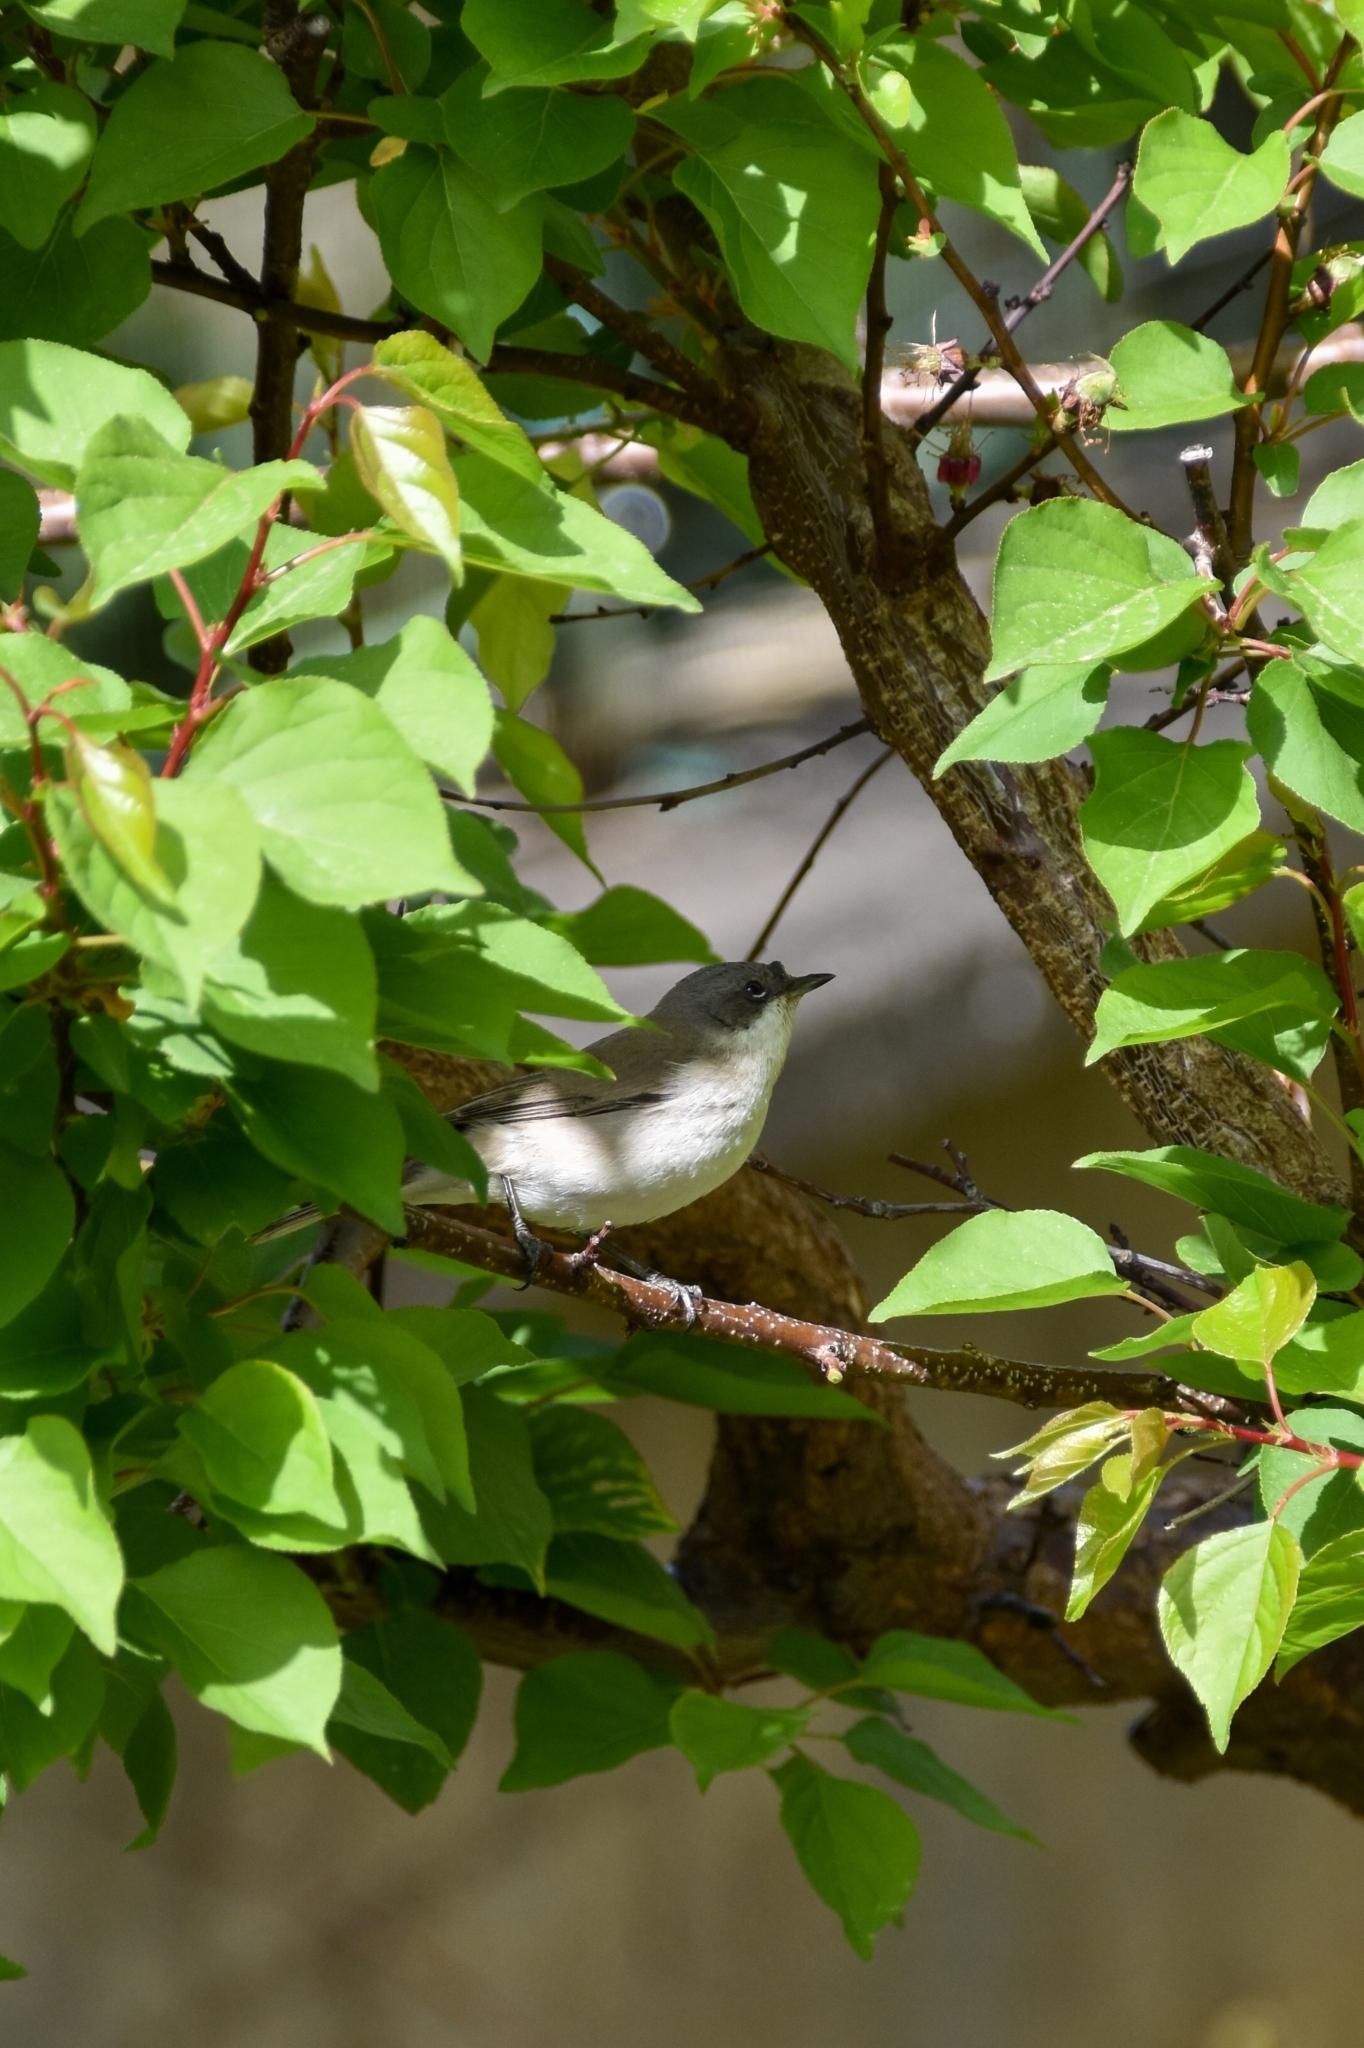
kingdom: Animalia
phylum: Chordata
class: Aves
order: Passeriformes
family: Sylviidae
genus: Sylvia
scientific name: Sylvia curruca
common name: Lesser whitethroat
